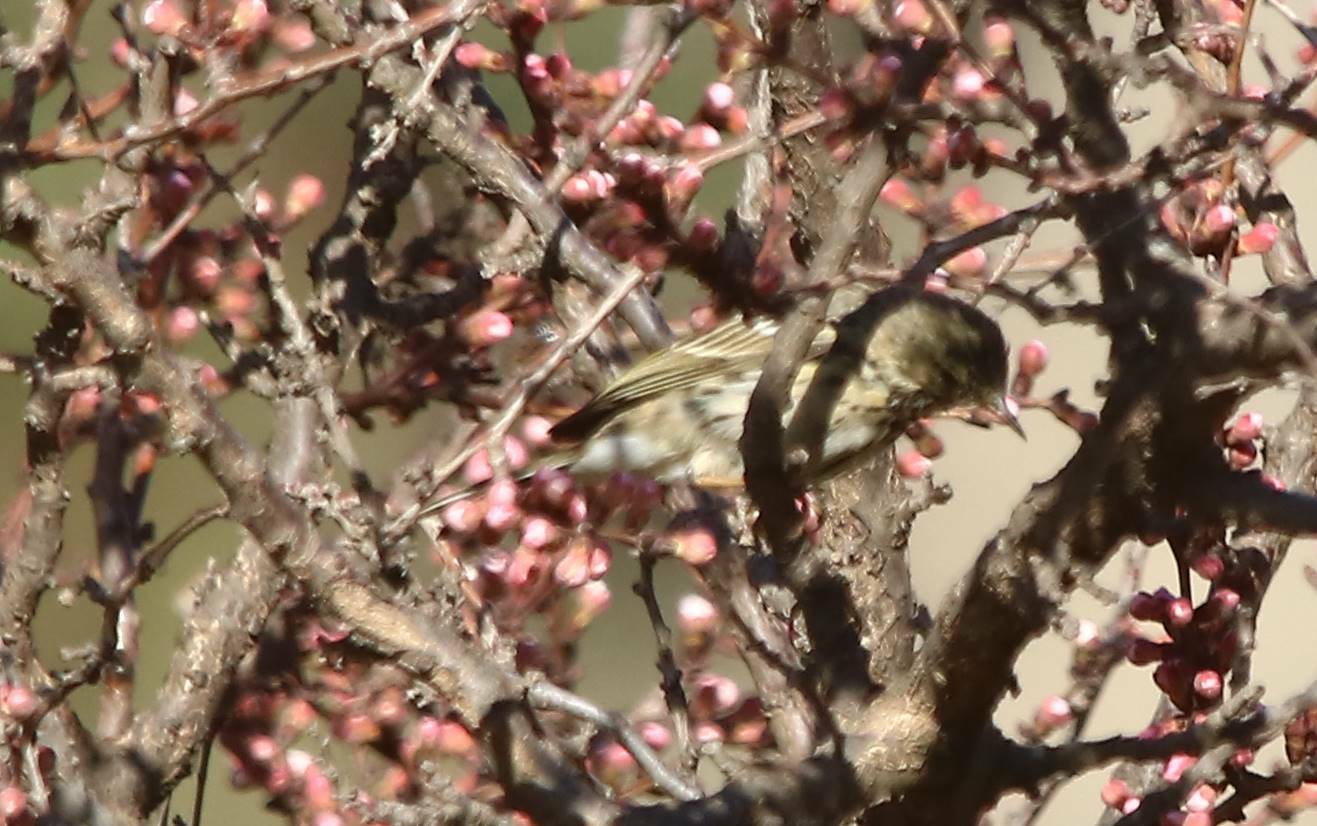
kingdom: Animalia
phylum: Chordata
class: Aves
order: Passeriformes
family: Motacillidae
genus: Anthus
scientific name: Anthus pratensis
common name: Meadow pipit
